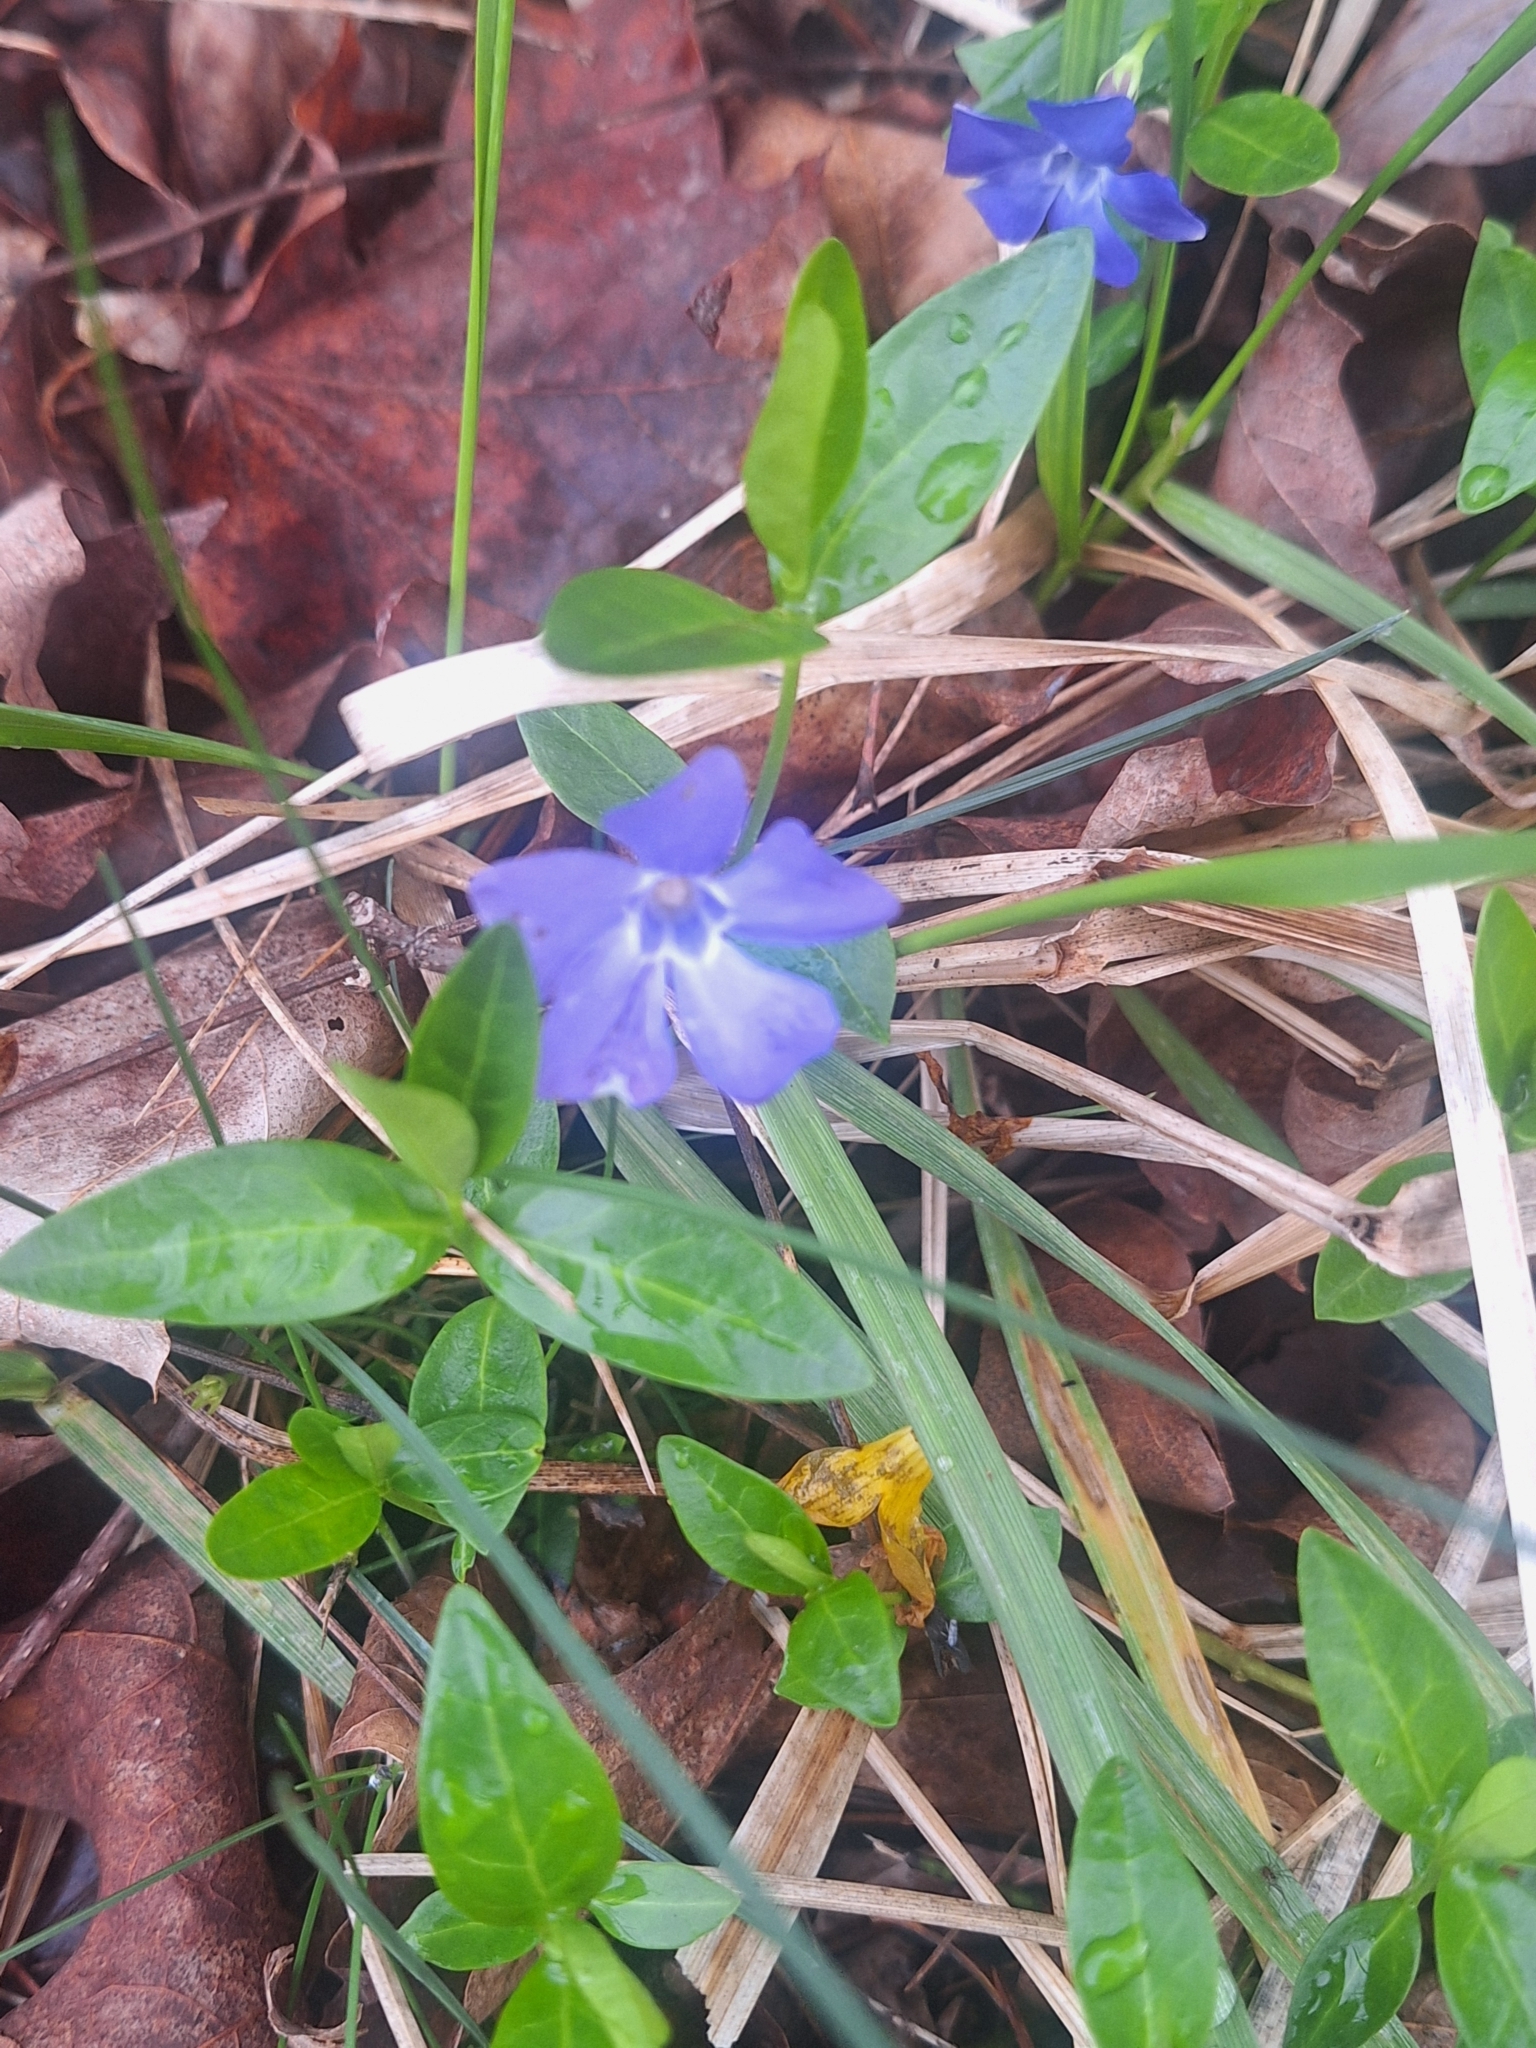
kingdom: Plantae
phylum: Tracheophyta
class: Magnoliopsida
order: Gentianales
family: Apocynaceae
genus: Vinca
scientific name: Vinca minor
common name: Lesser periwinkle
